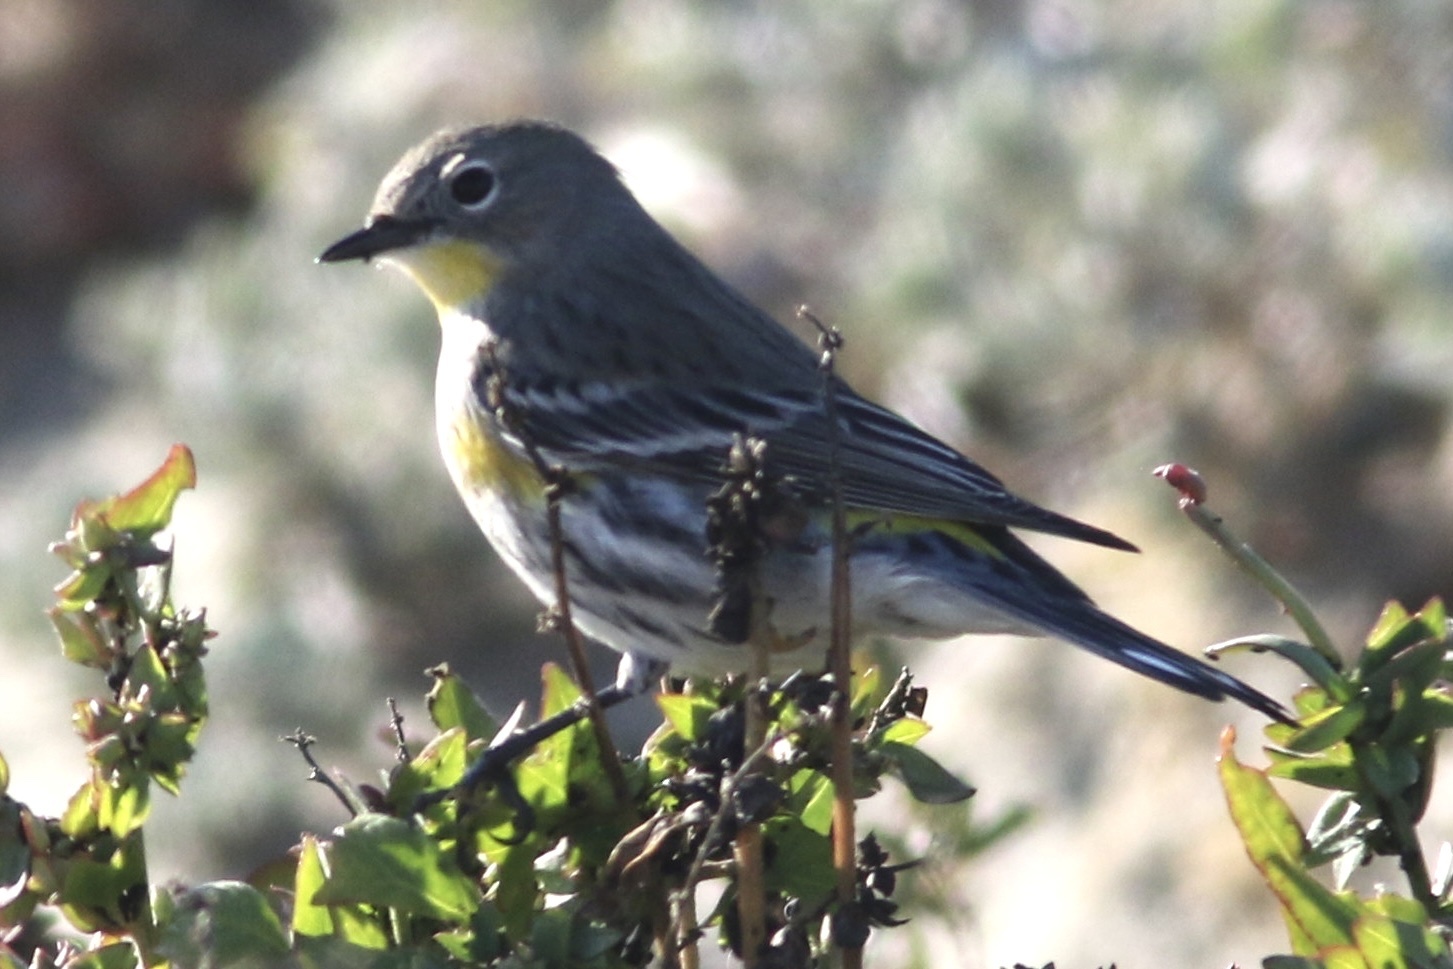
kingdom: Animalia
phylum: Chordata
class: Aves
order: Passeriformes
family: Parulidae
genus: Setophaga
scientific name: Setophaga coronata
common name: Myrtle warbler
